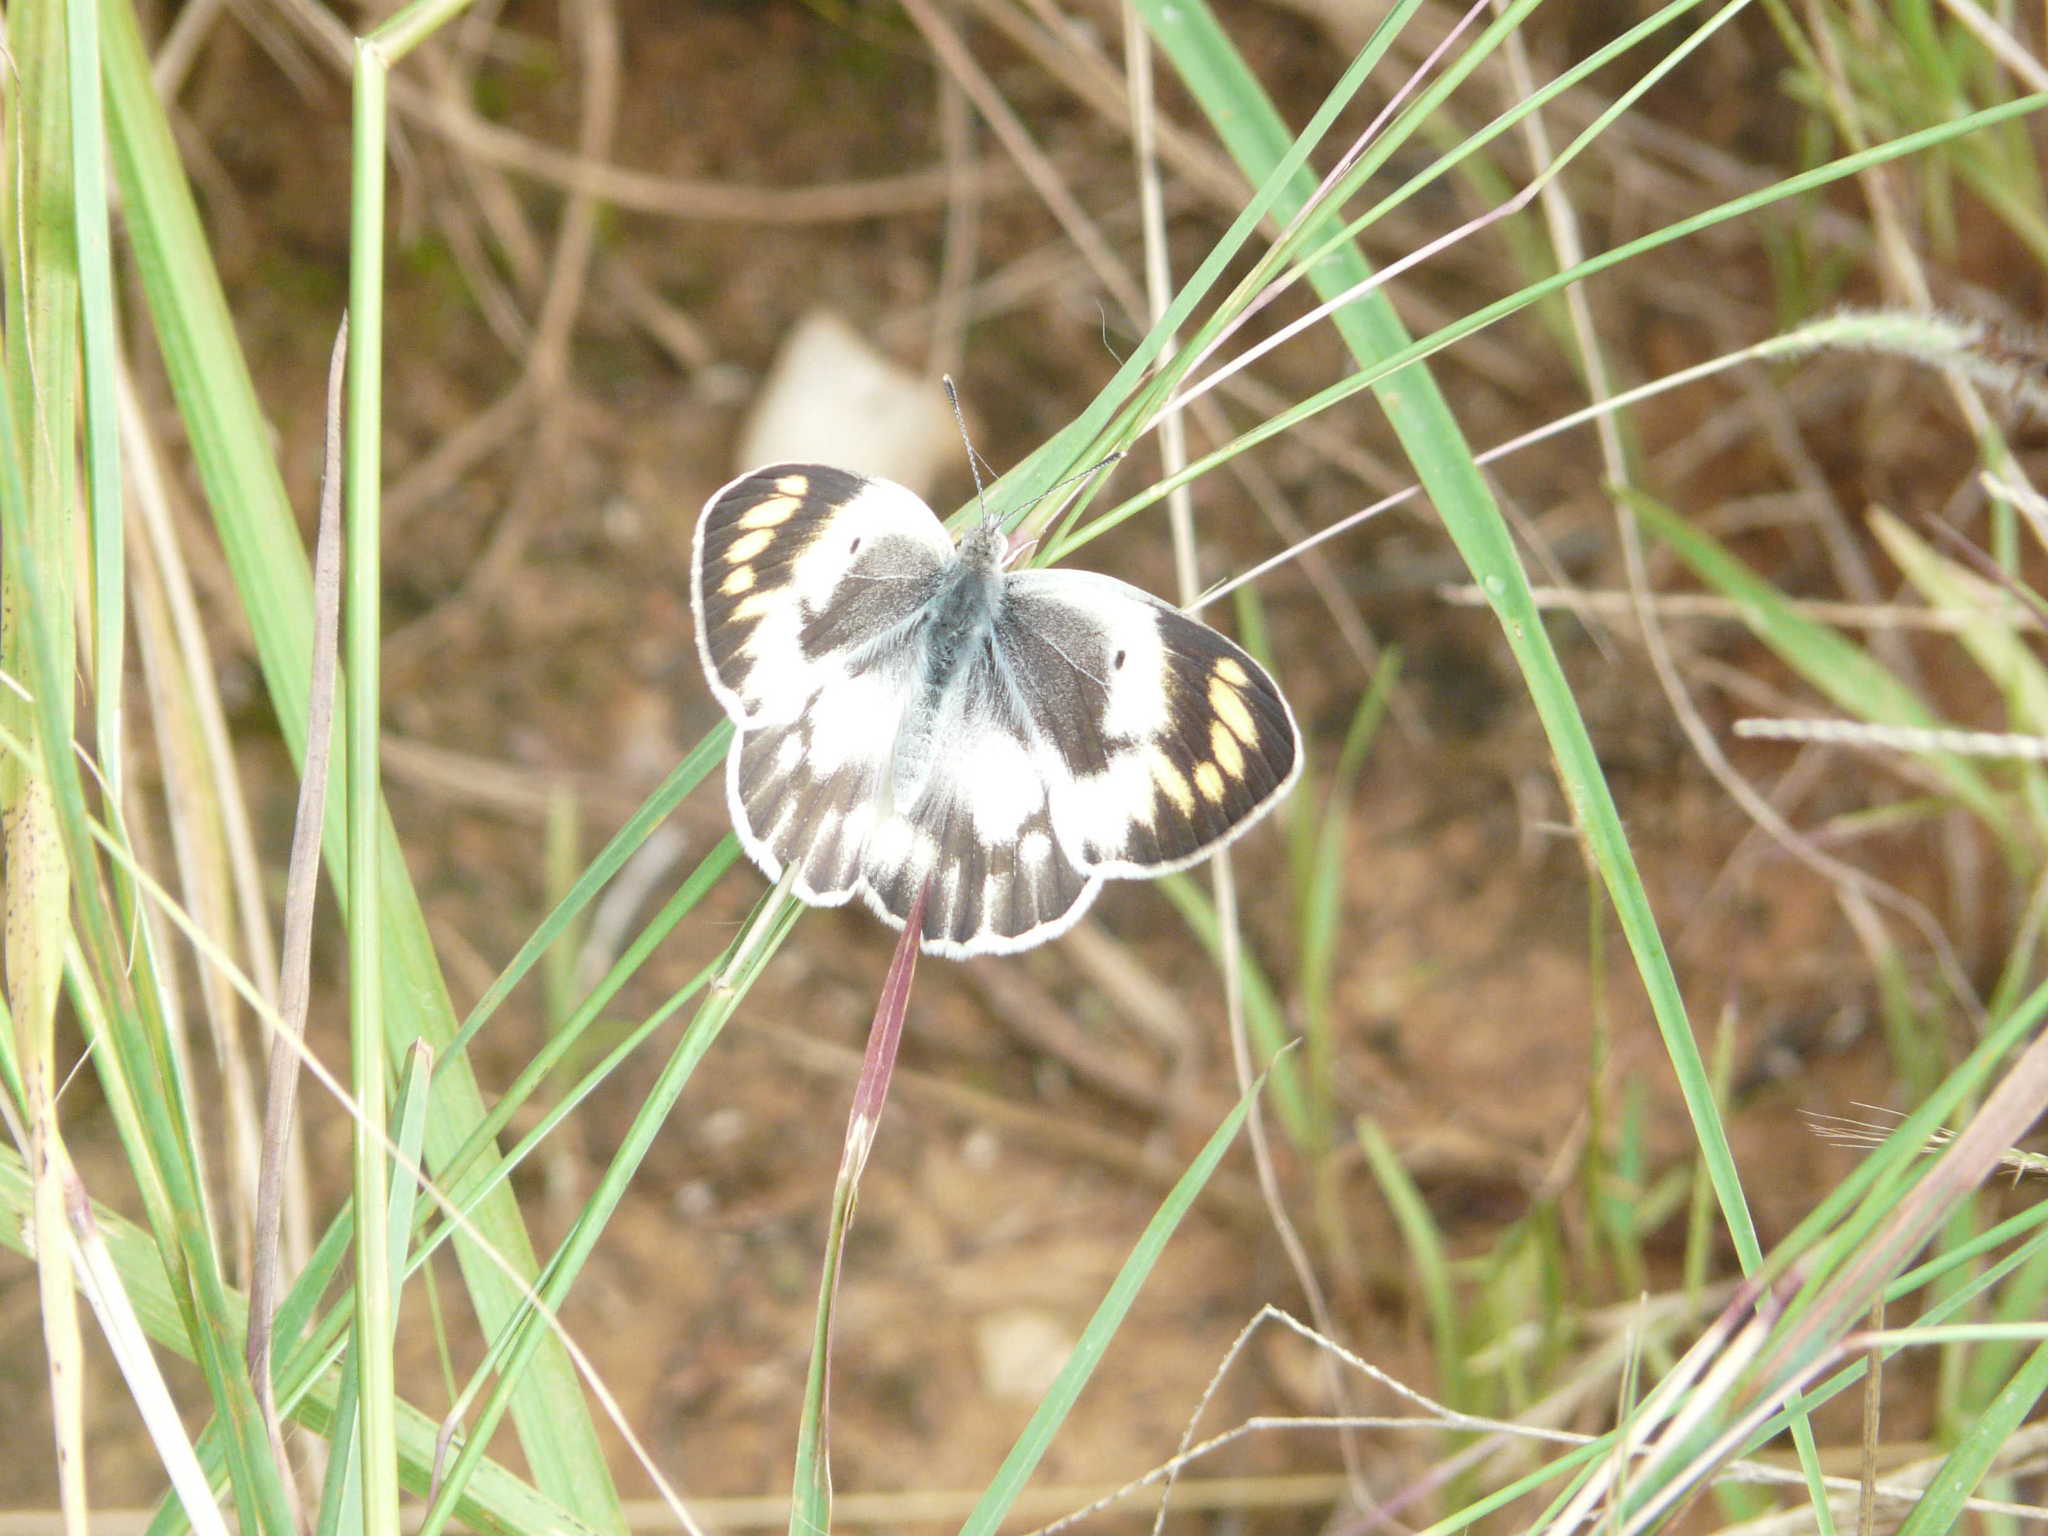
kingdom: Animalia
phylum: Arthropoda
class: Insecta
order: Lepidoptera
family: Pieridae
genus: Colotis
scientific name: Colotis antevippe
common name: Large orange tip
